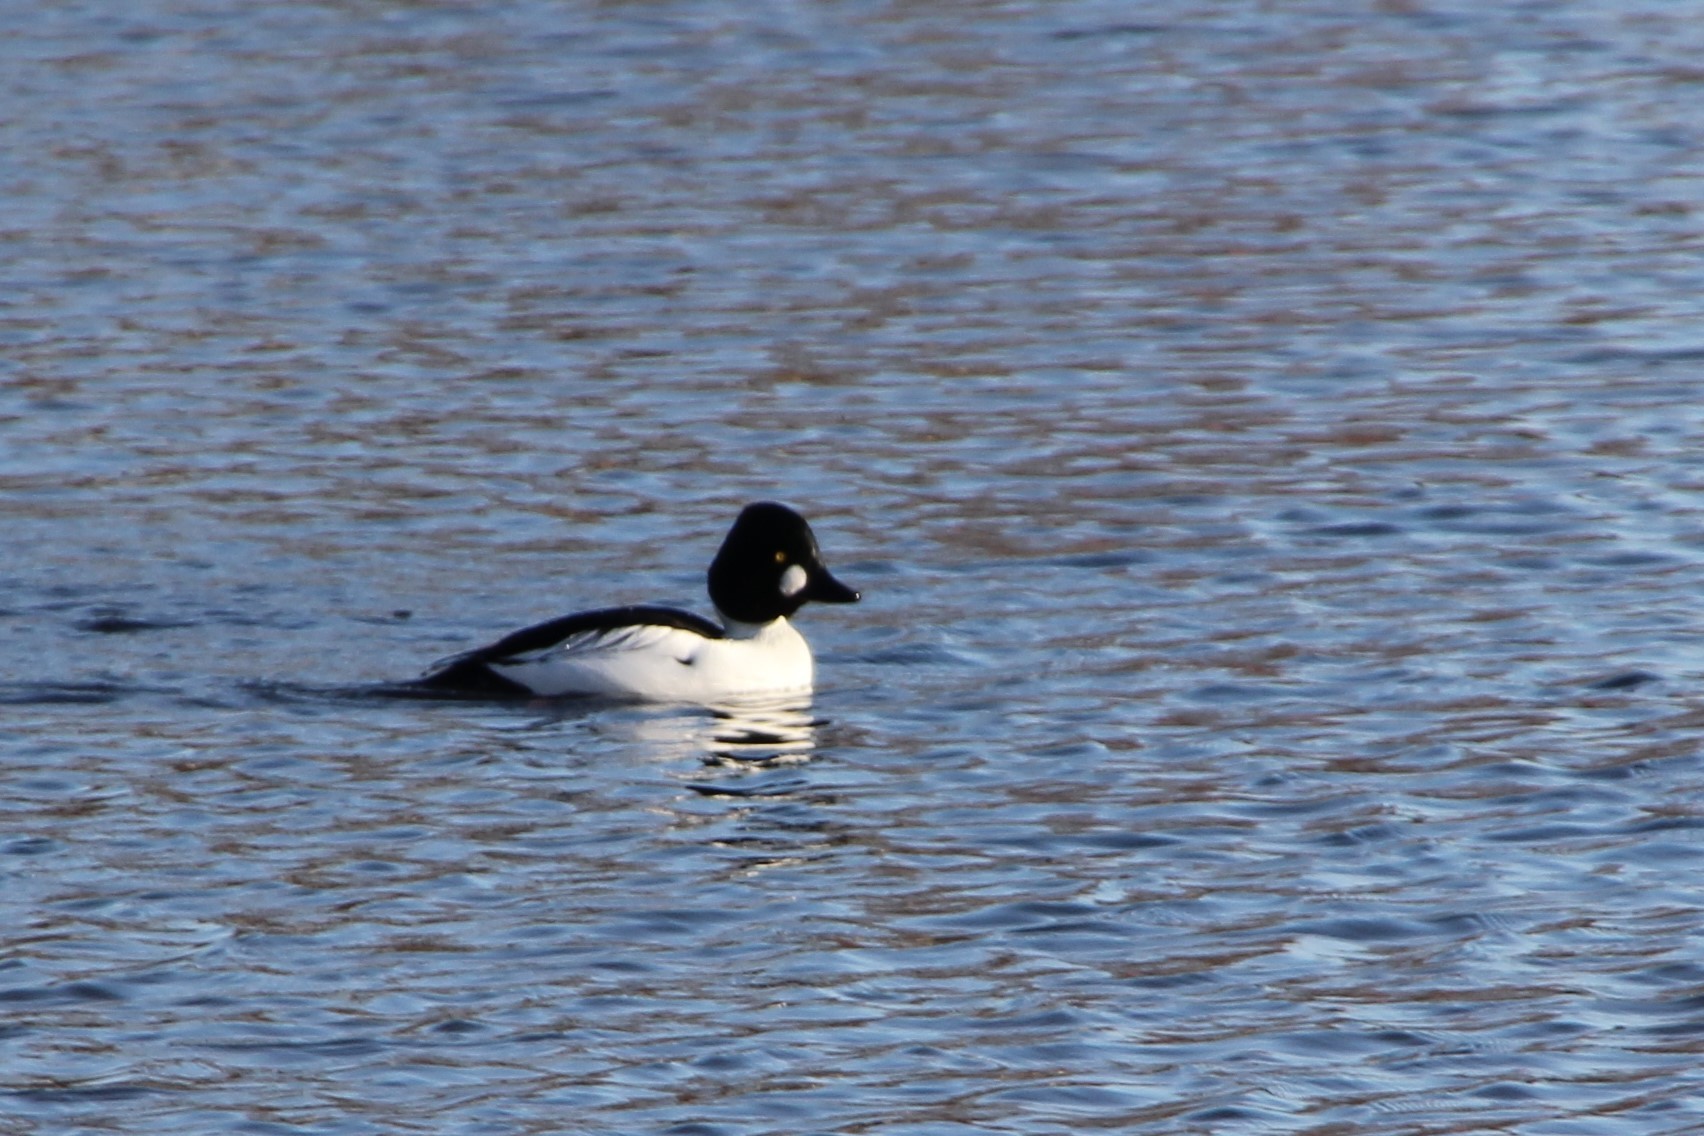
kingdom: Animalia
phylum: Chordata
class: Aves
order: Anseriformes
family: Anatidae
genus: Bucephala
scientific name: Bucephala clangula
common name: Common goldeneye
